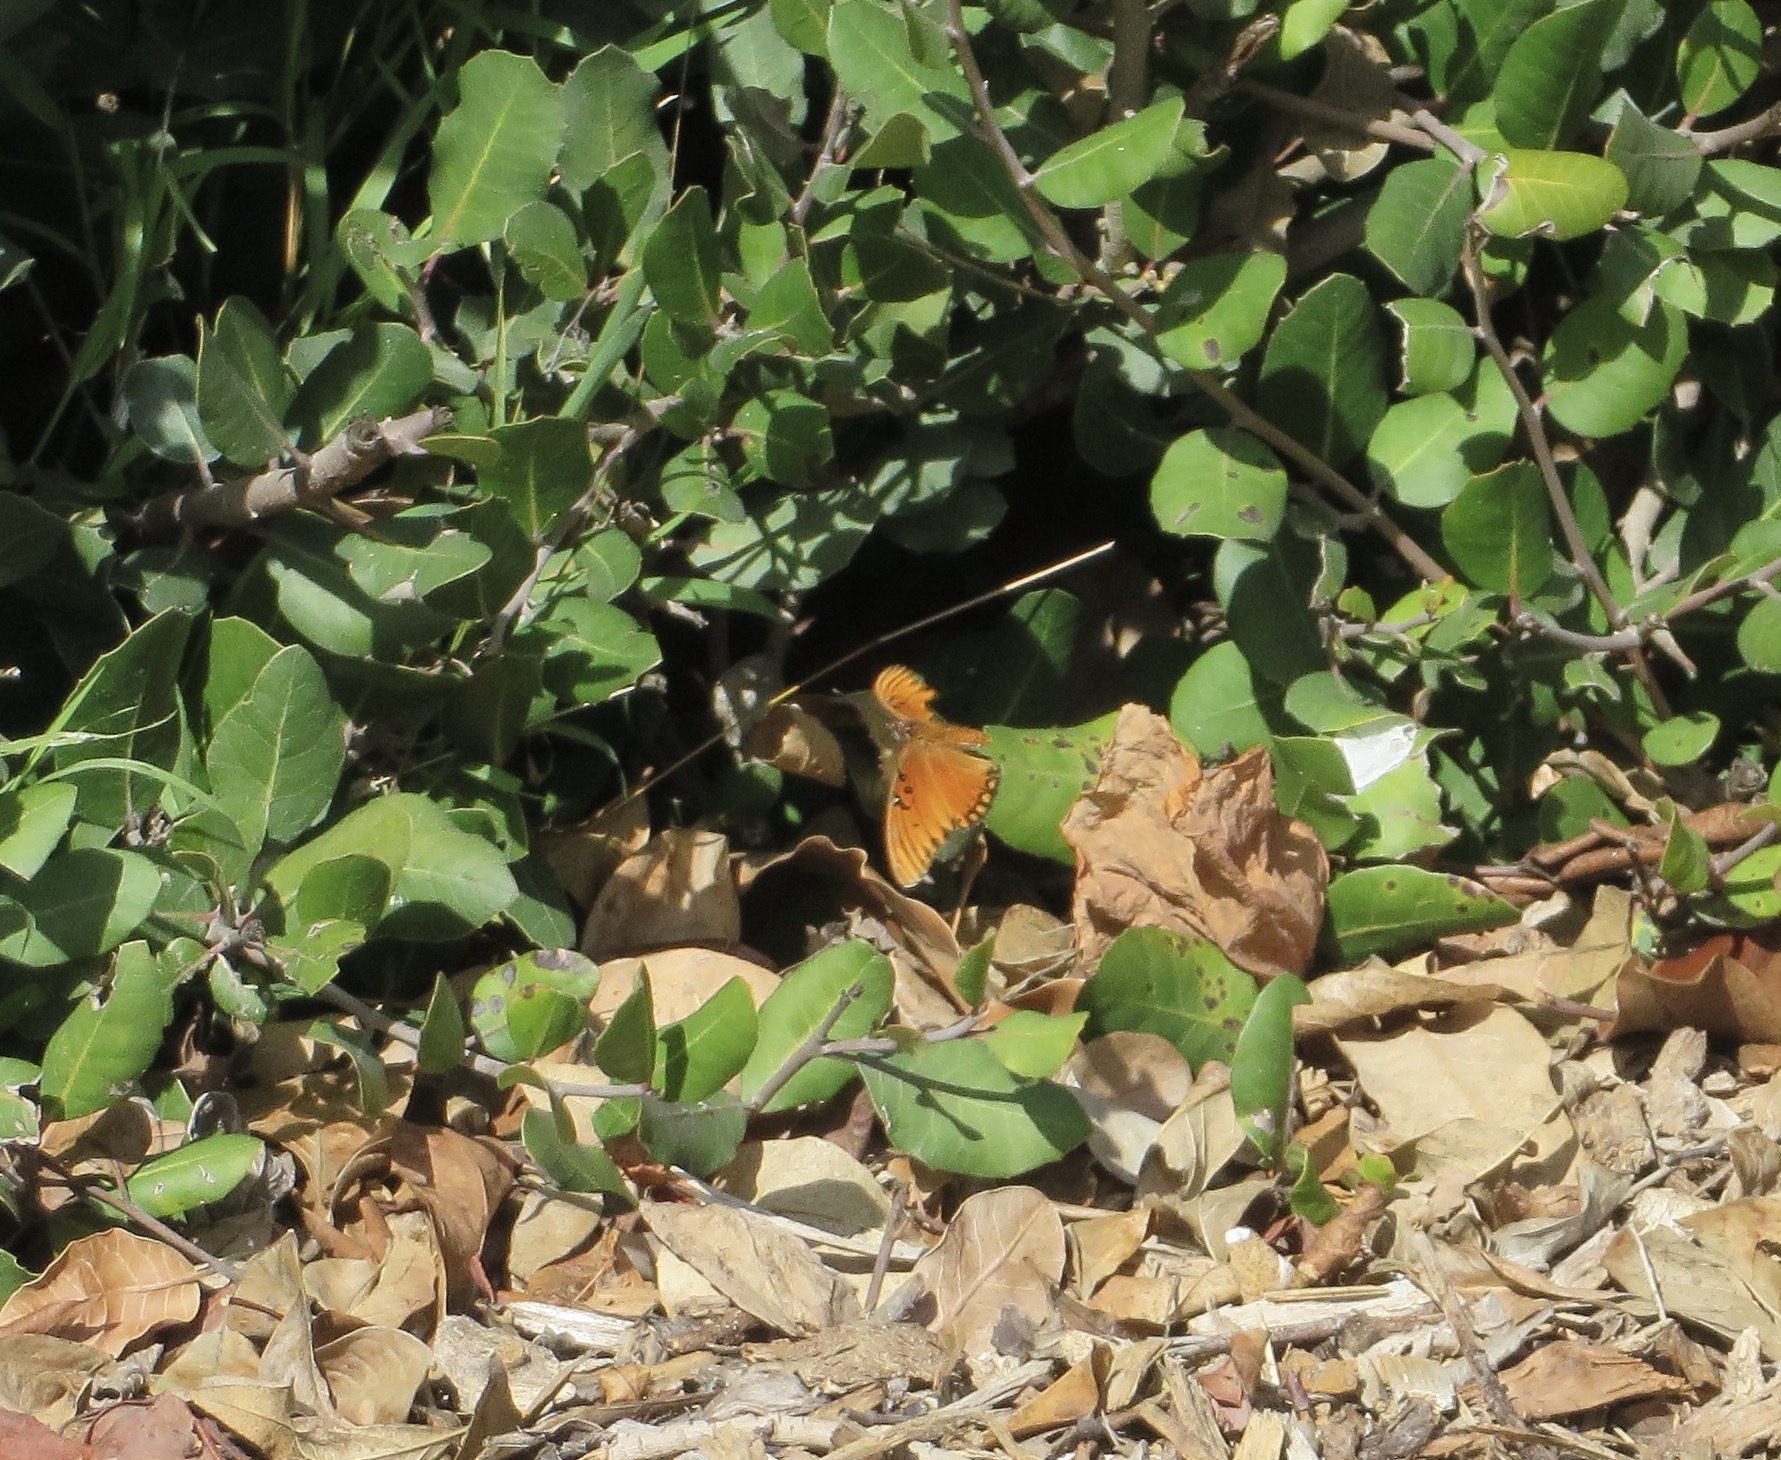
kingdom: Animalia
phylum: Arthropoda
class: Insecta
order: Lepidoptera
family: Nymphalidae
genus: Dione
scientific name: Dione vanillae
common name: Gulf fritillary
